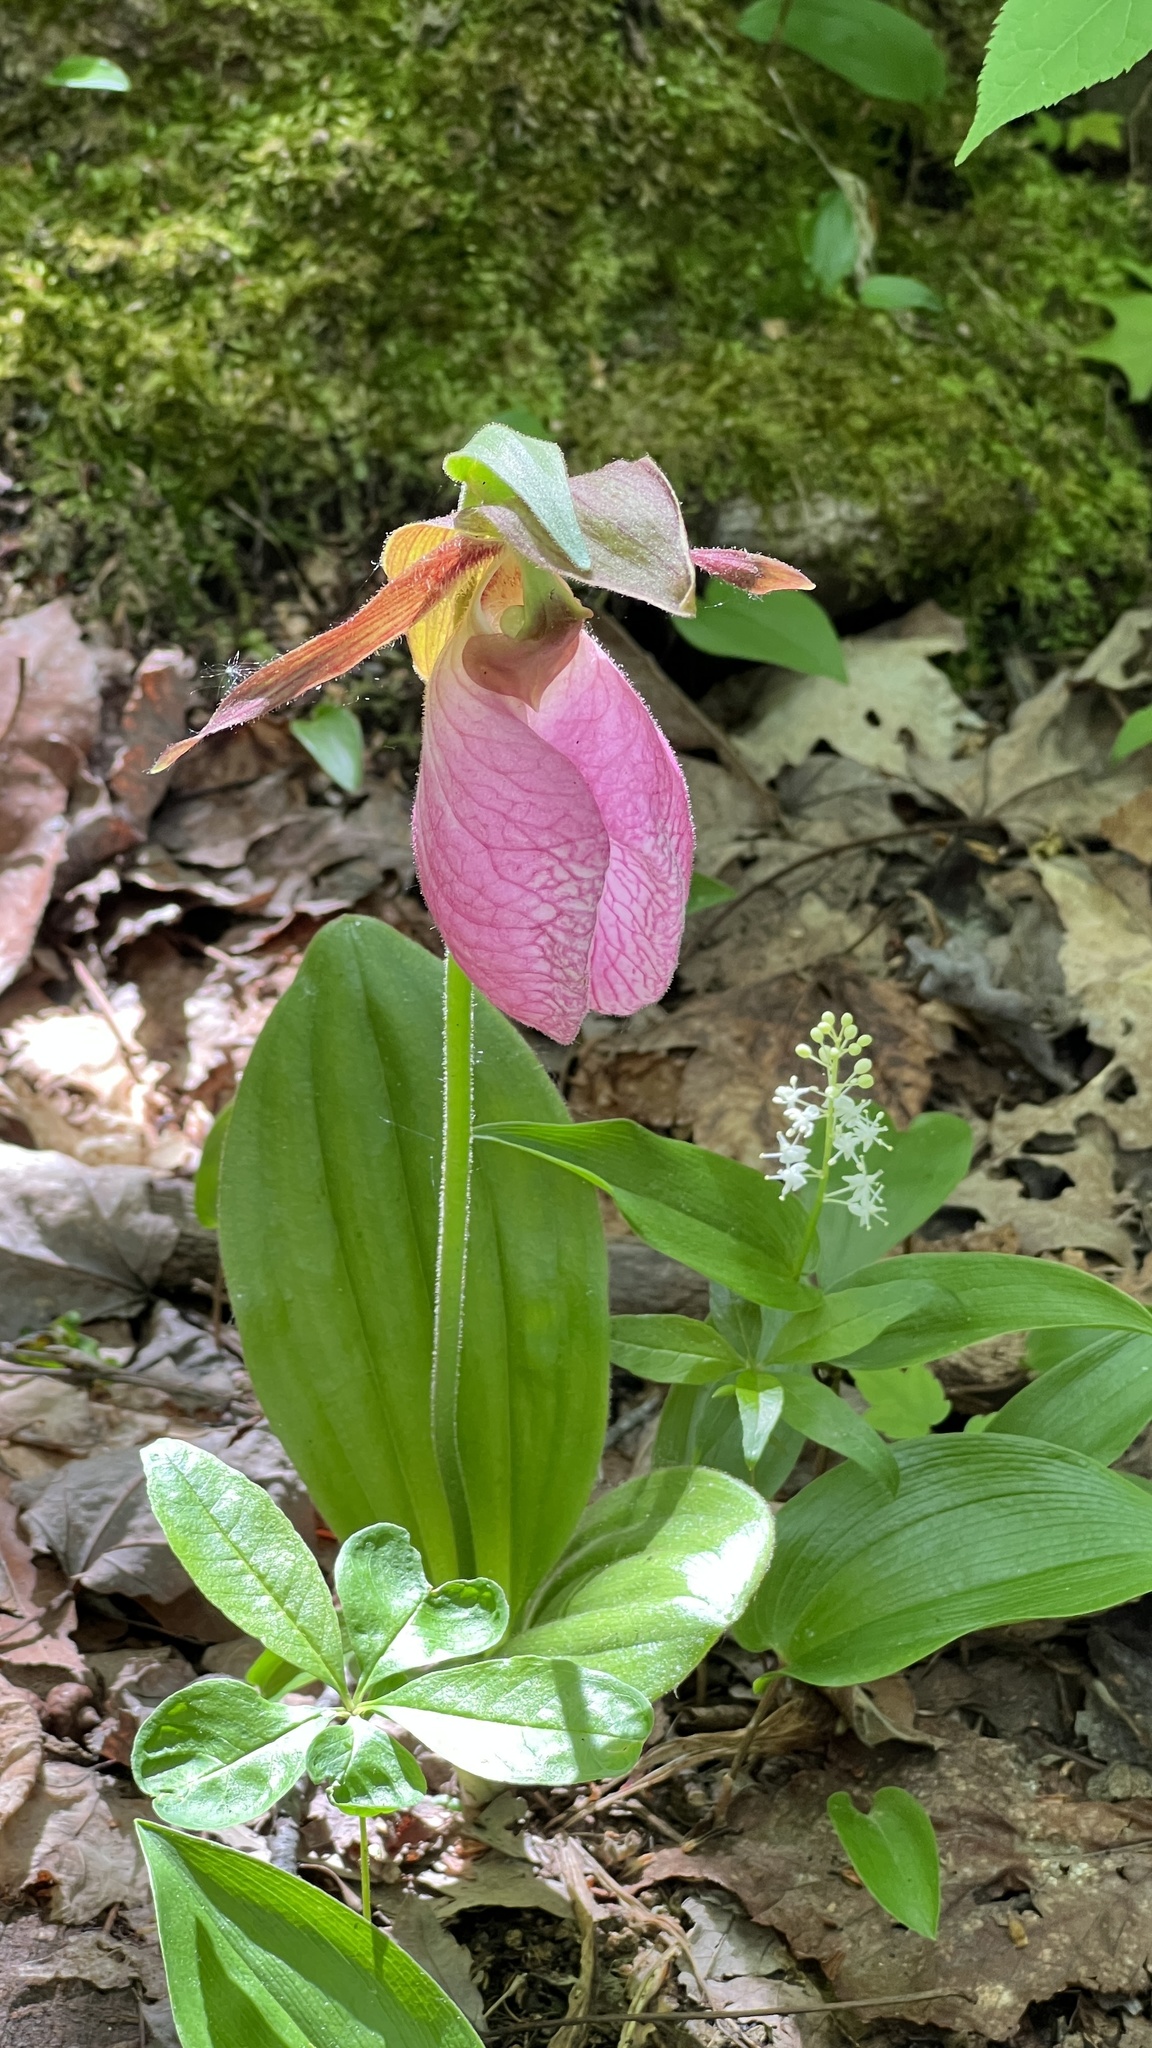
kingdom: Plantae
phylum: Tracheophyta
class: Liliopsida
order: Asparagales
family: Orchidaceae
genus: Cypripedium
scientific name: Cypripedium acaule
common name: Pink lady's-slipper
